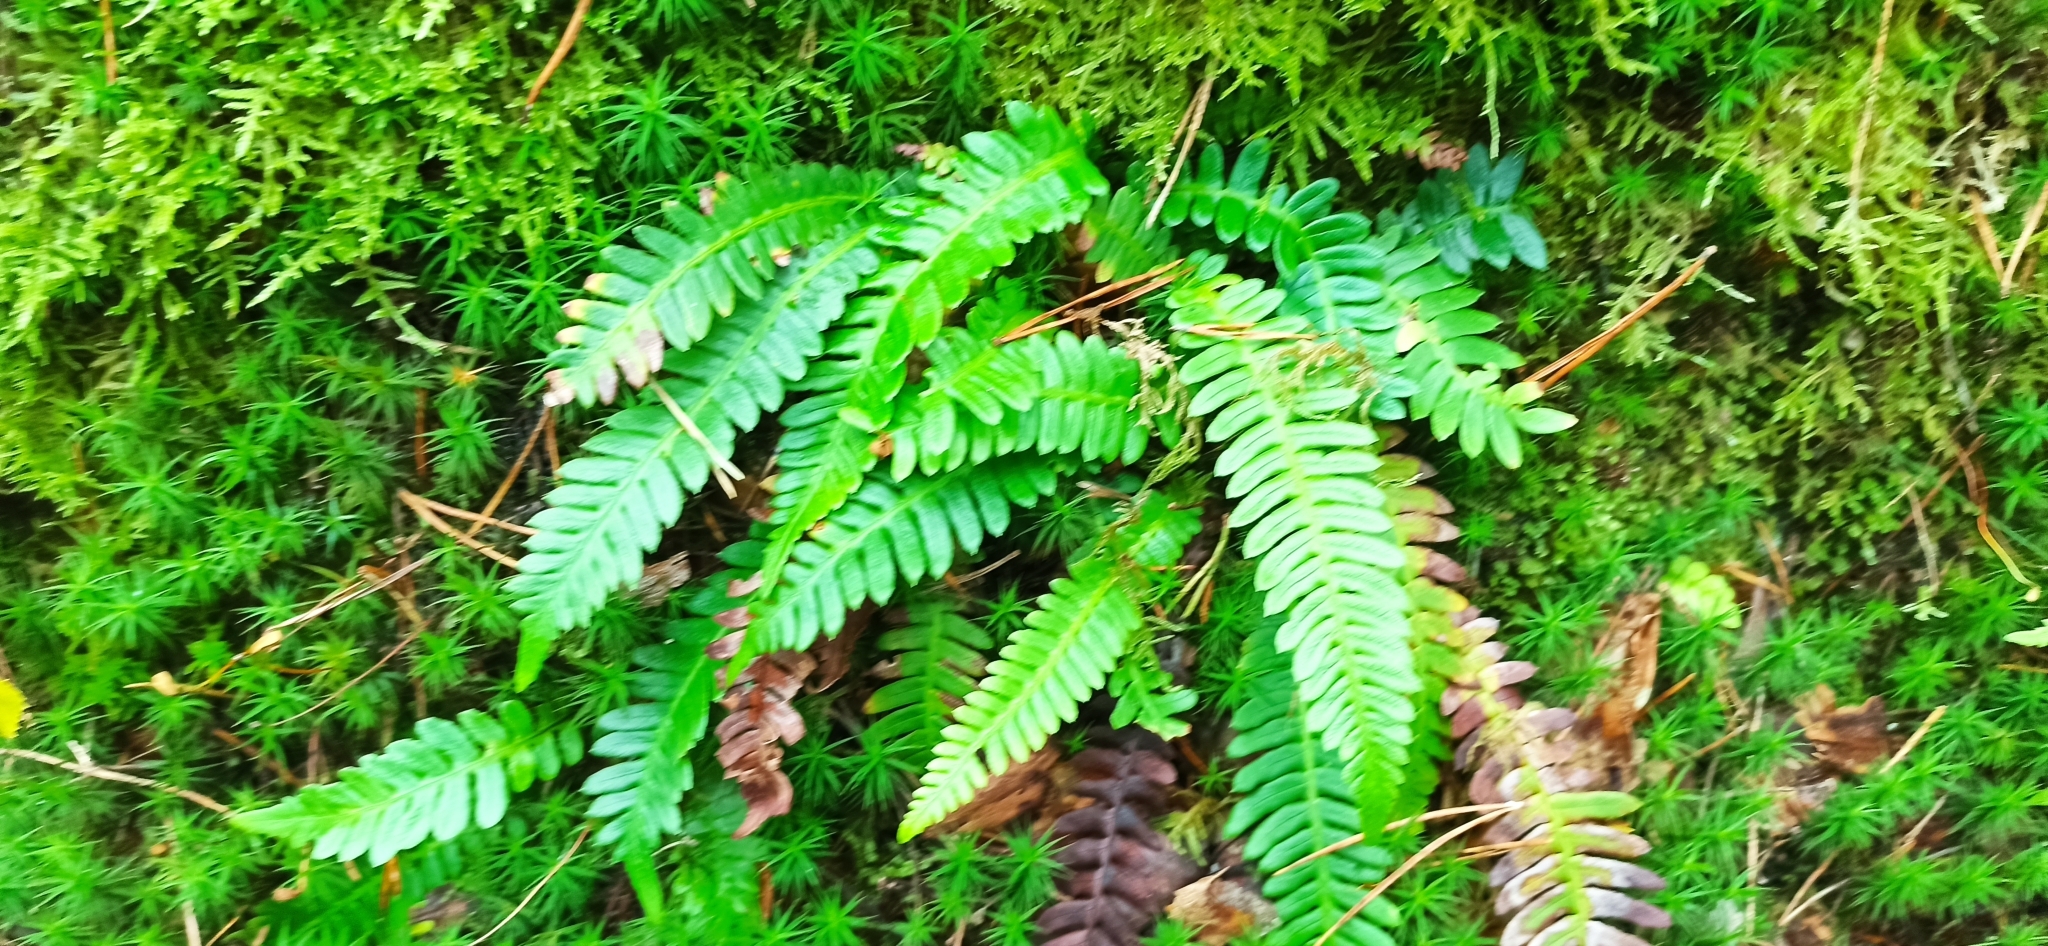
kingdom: Plantae
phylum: Tracheophyta
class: Polypodiopsida
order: Polypodiales
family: Blechnaceae
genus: Struthiopteris
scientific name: Struthiopteris spicant
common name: Deer fern
